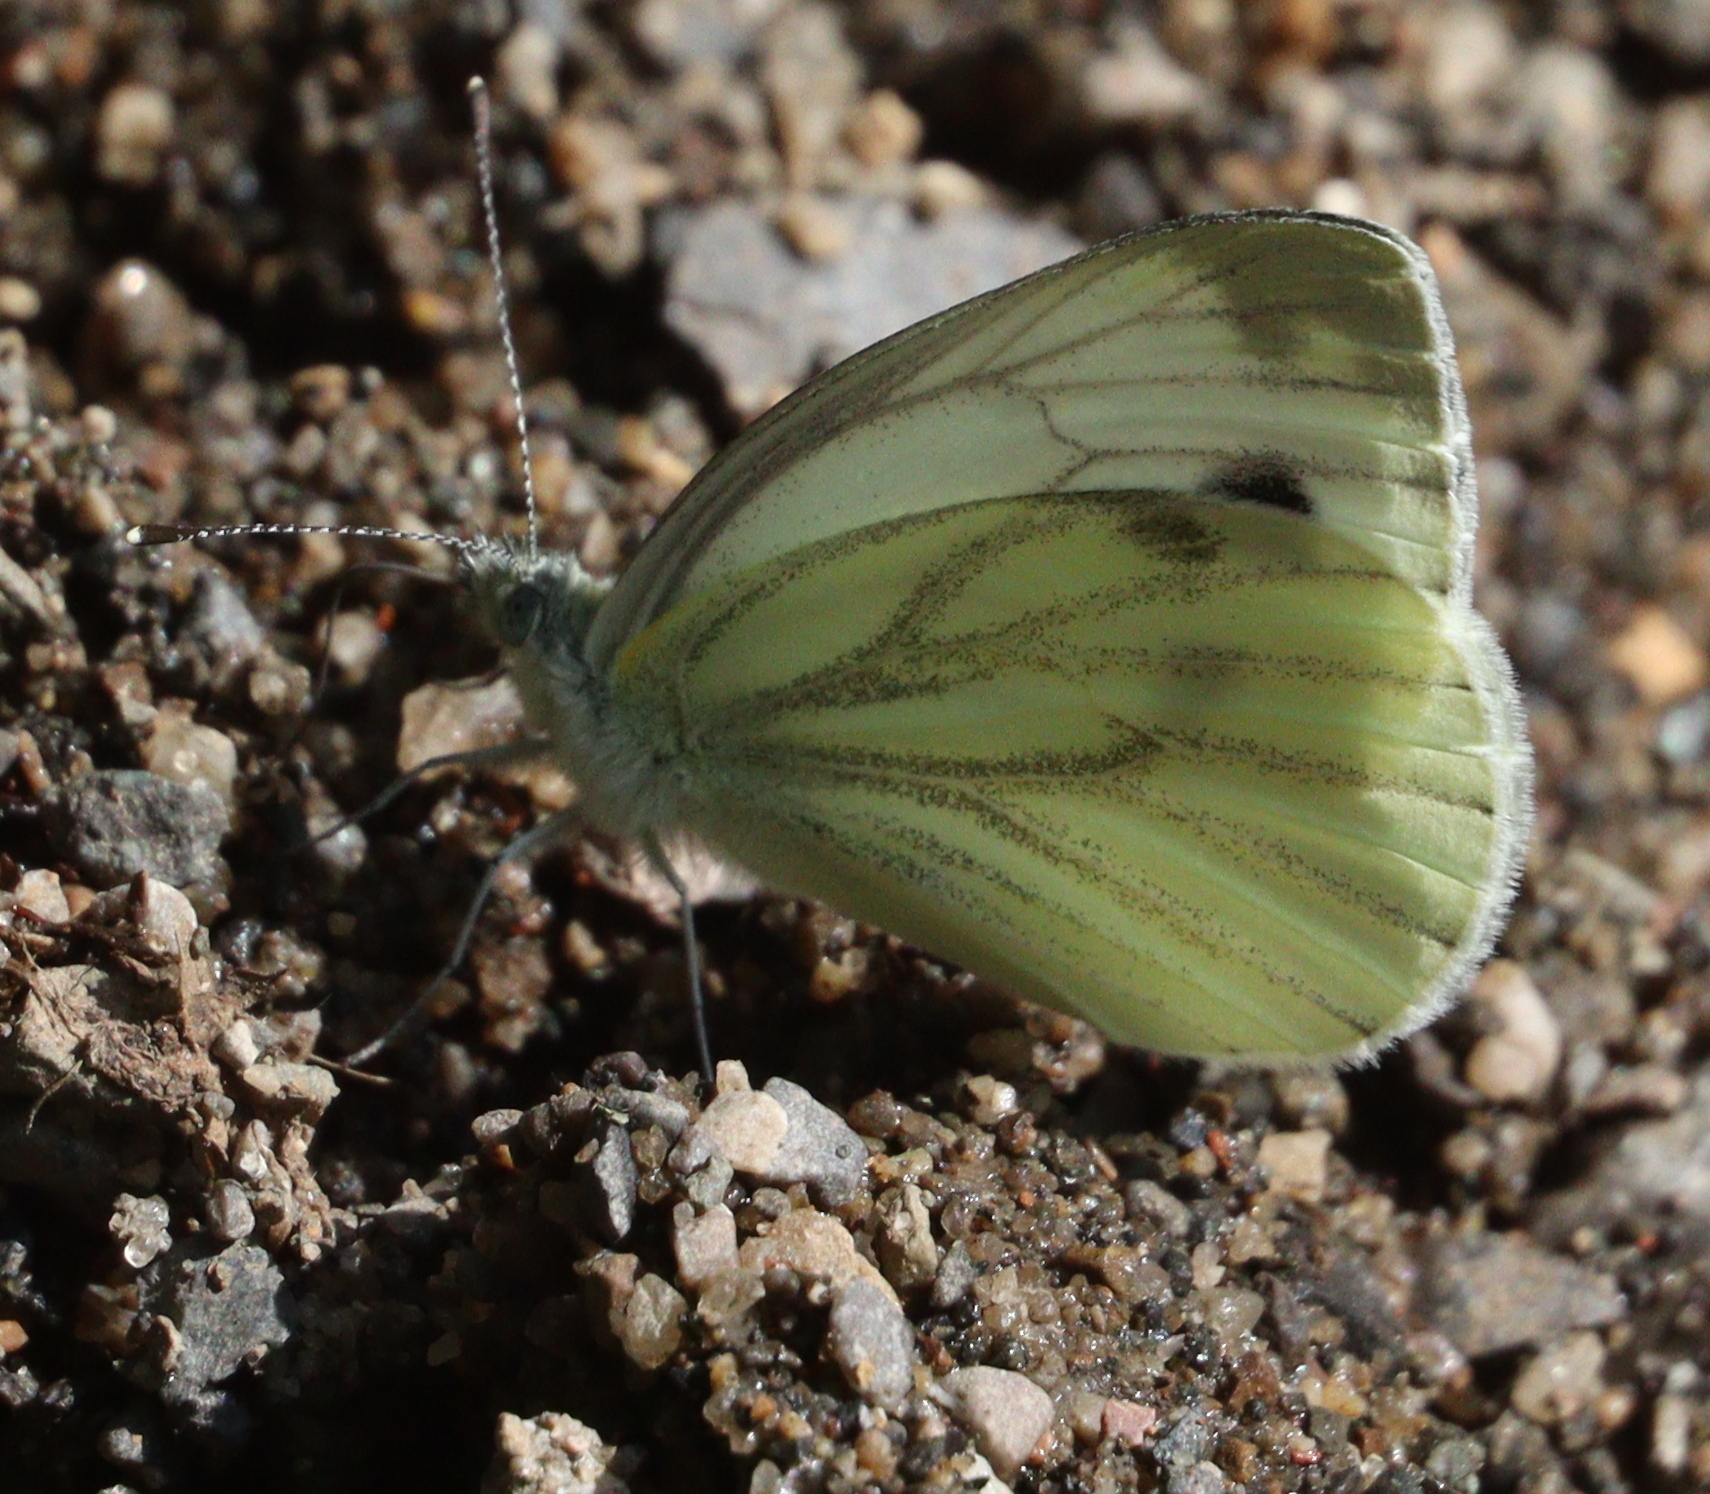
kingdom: Animalia
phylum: Arthropoda
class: Insecta
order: Lepidoptera
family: Pieridae
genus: Pieris
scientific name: Pieris napi
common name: Green-veined white
